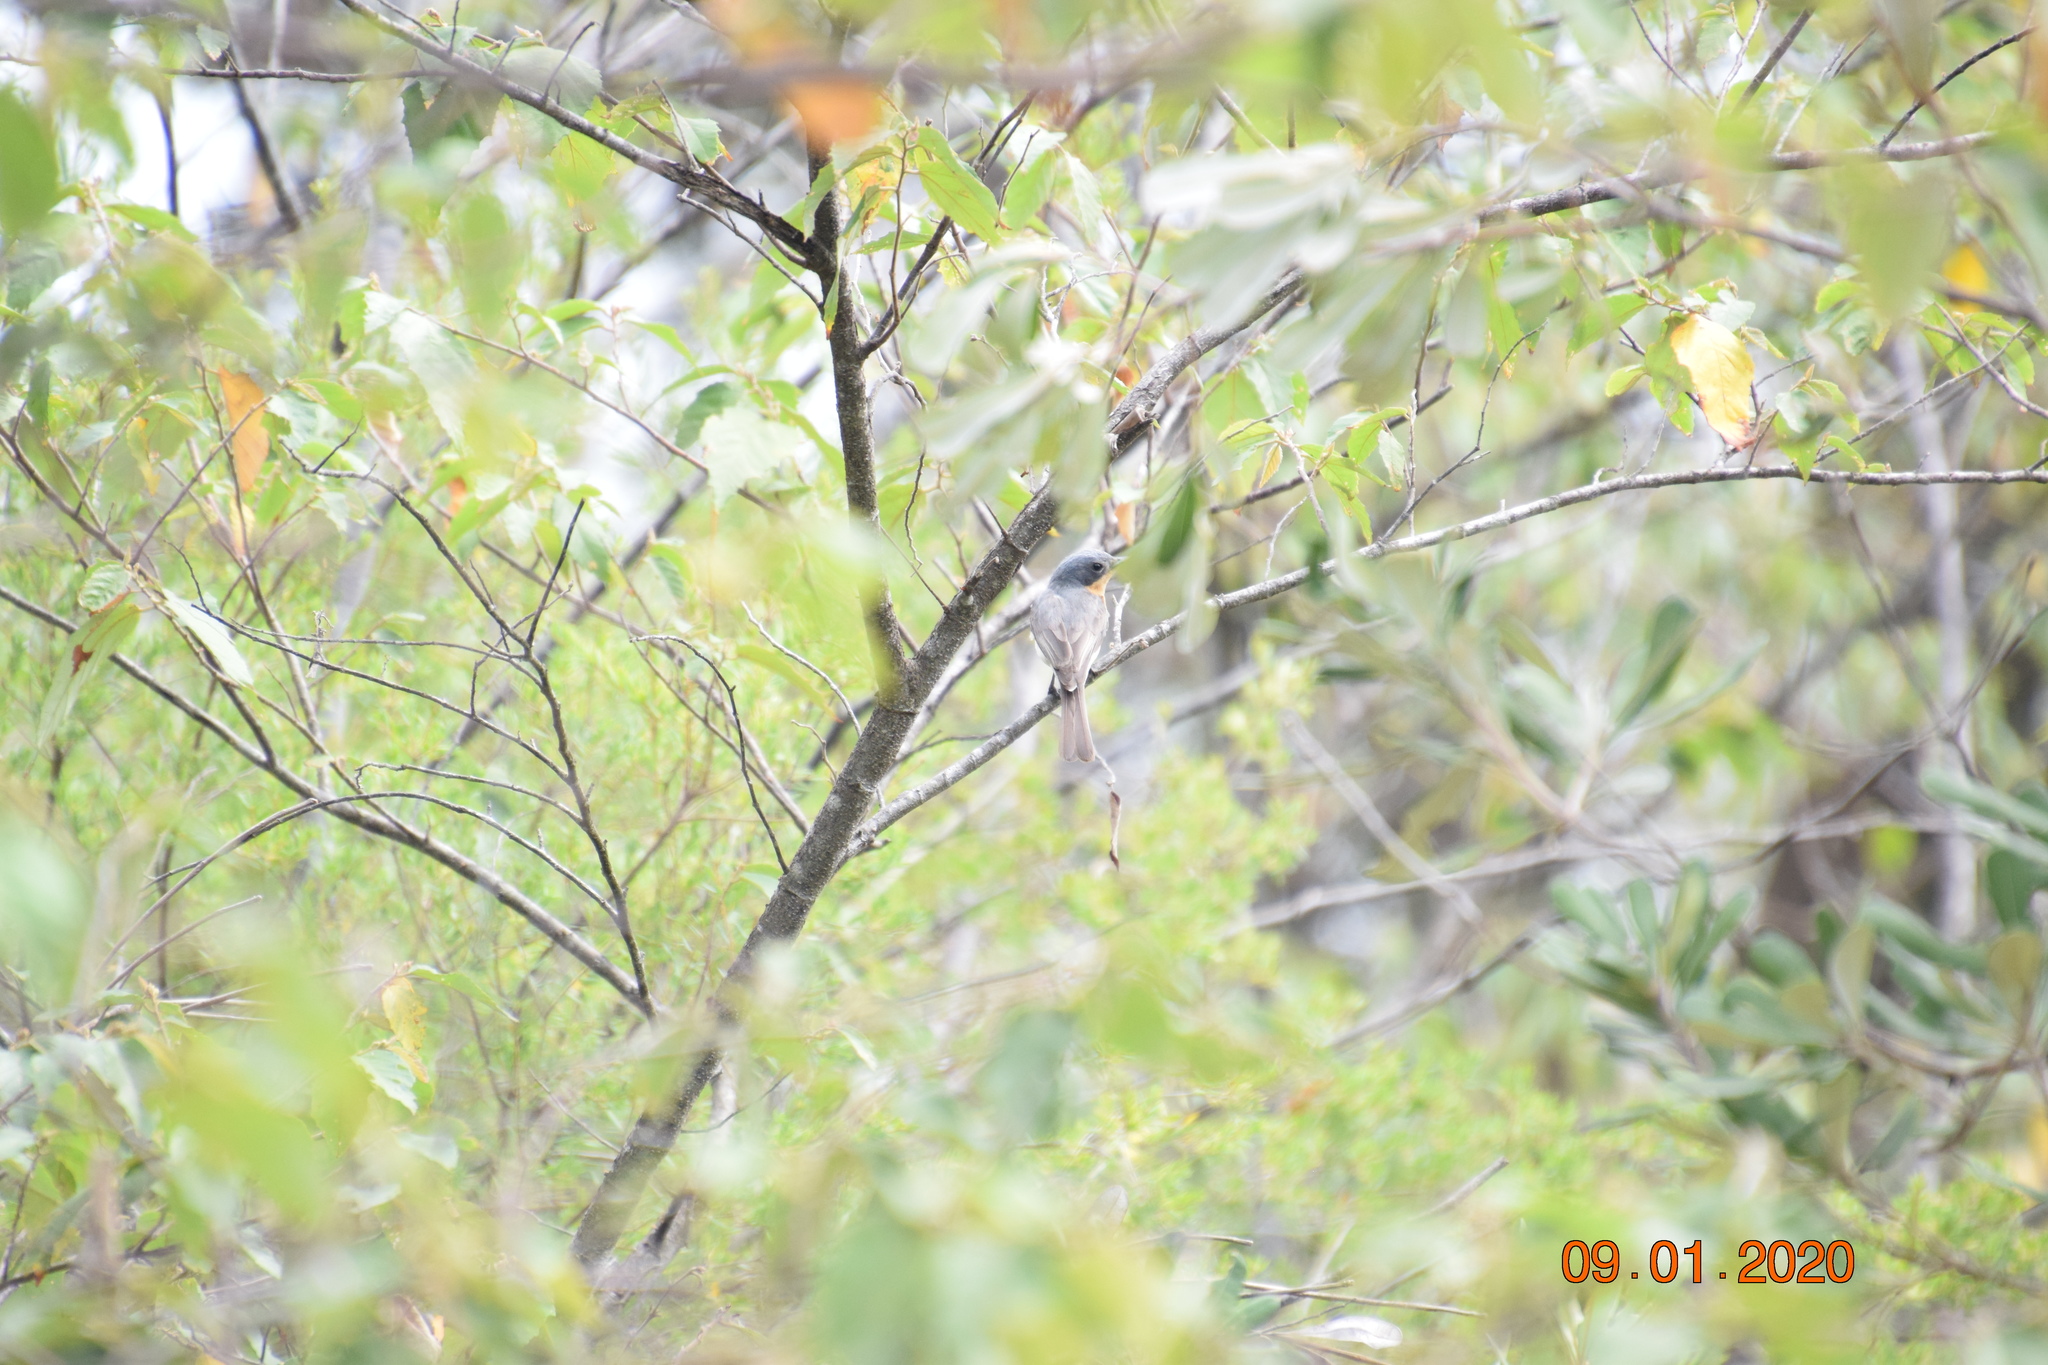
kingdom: Animalia
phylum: Chordata
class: Aves
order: Passeriformes
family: Monarchidae
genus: Myiagra
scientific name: Myiagra rubecula
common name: Leaden flycatcher
